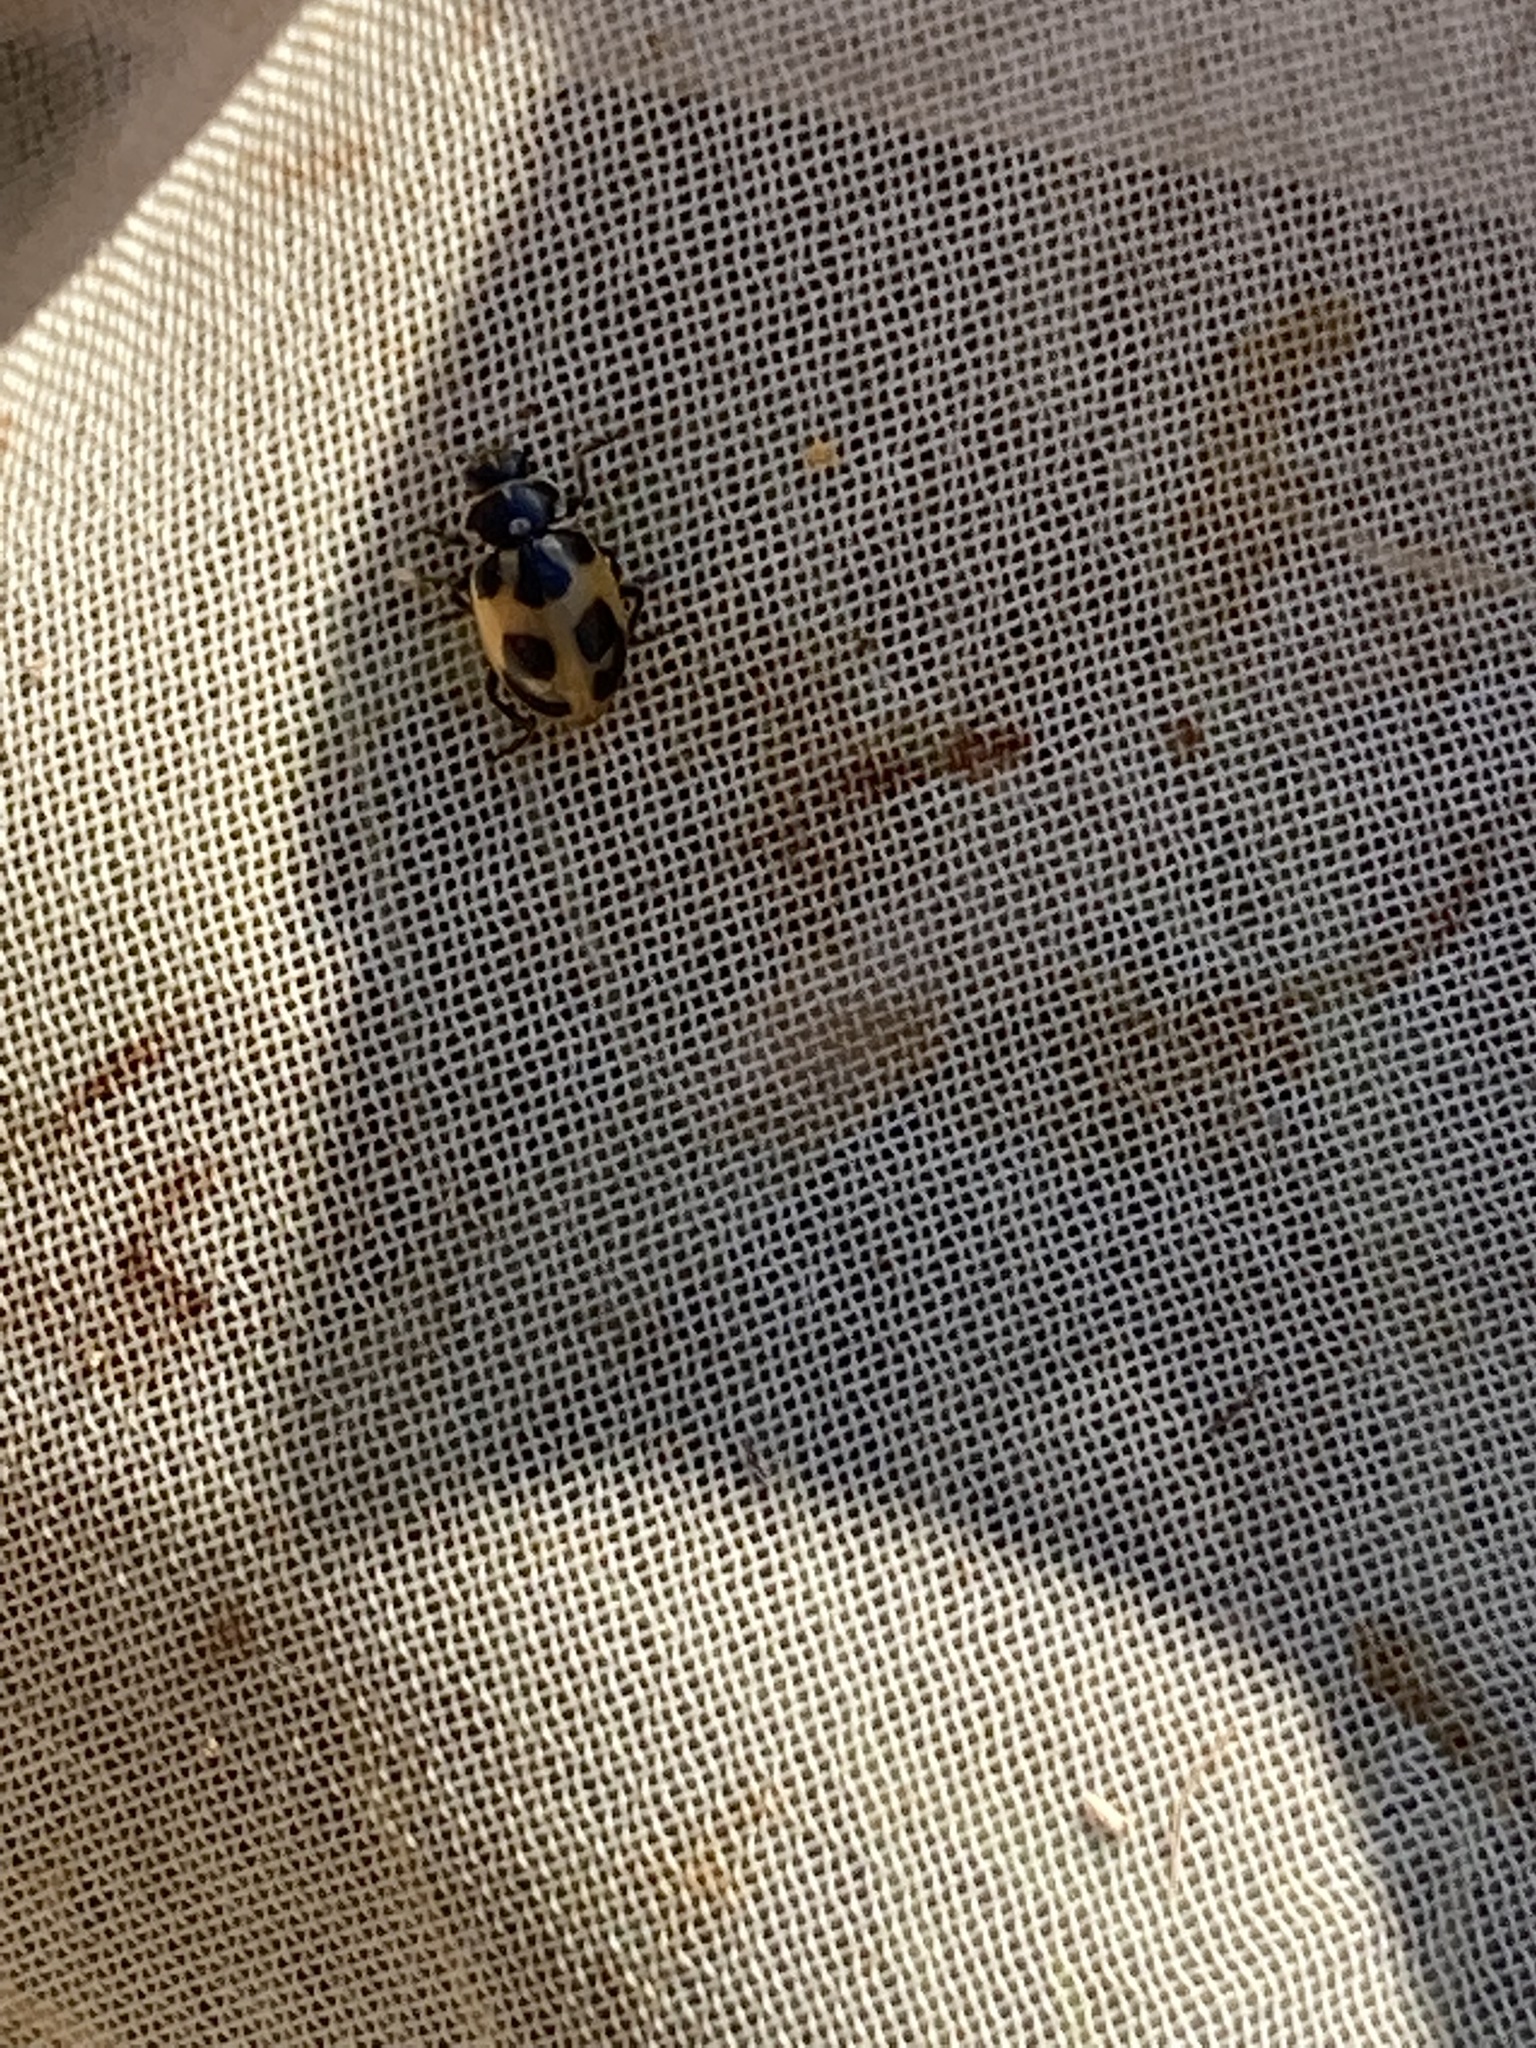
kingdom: Animalia
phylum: Arthropoda
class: Insecta
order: Coleoptera
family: Coccinellidae
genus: Hippodamia
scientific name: Hippodamia parenthesis
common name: Parenthesis lady beetle
